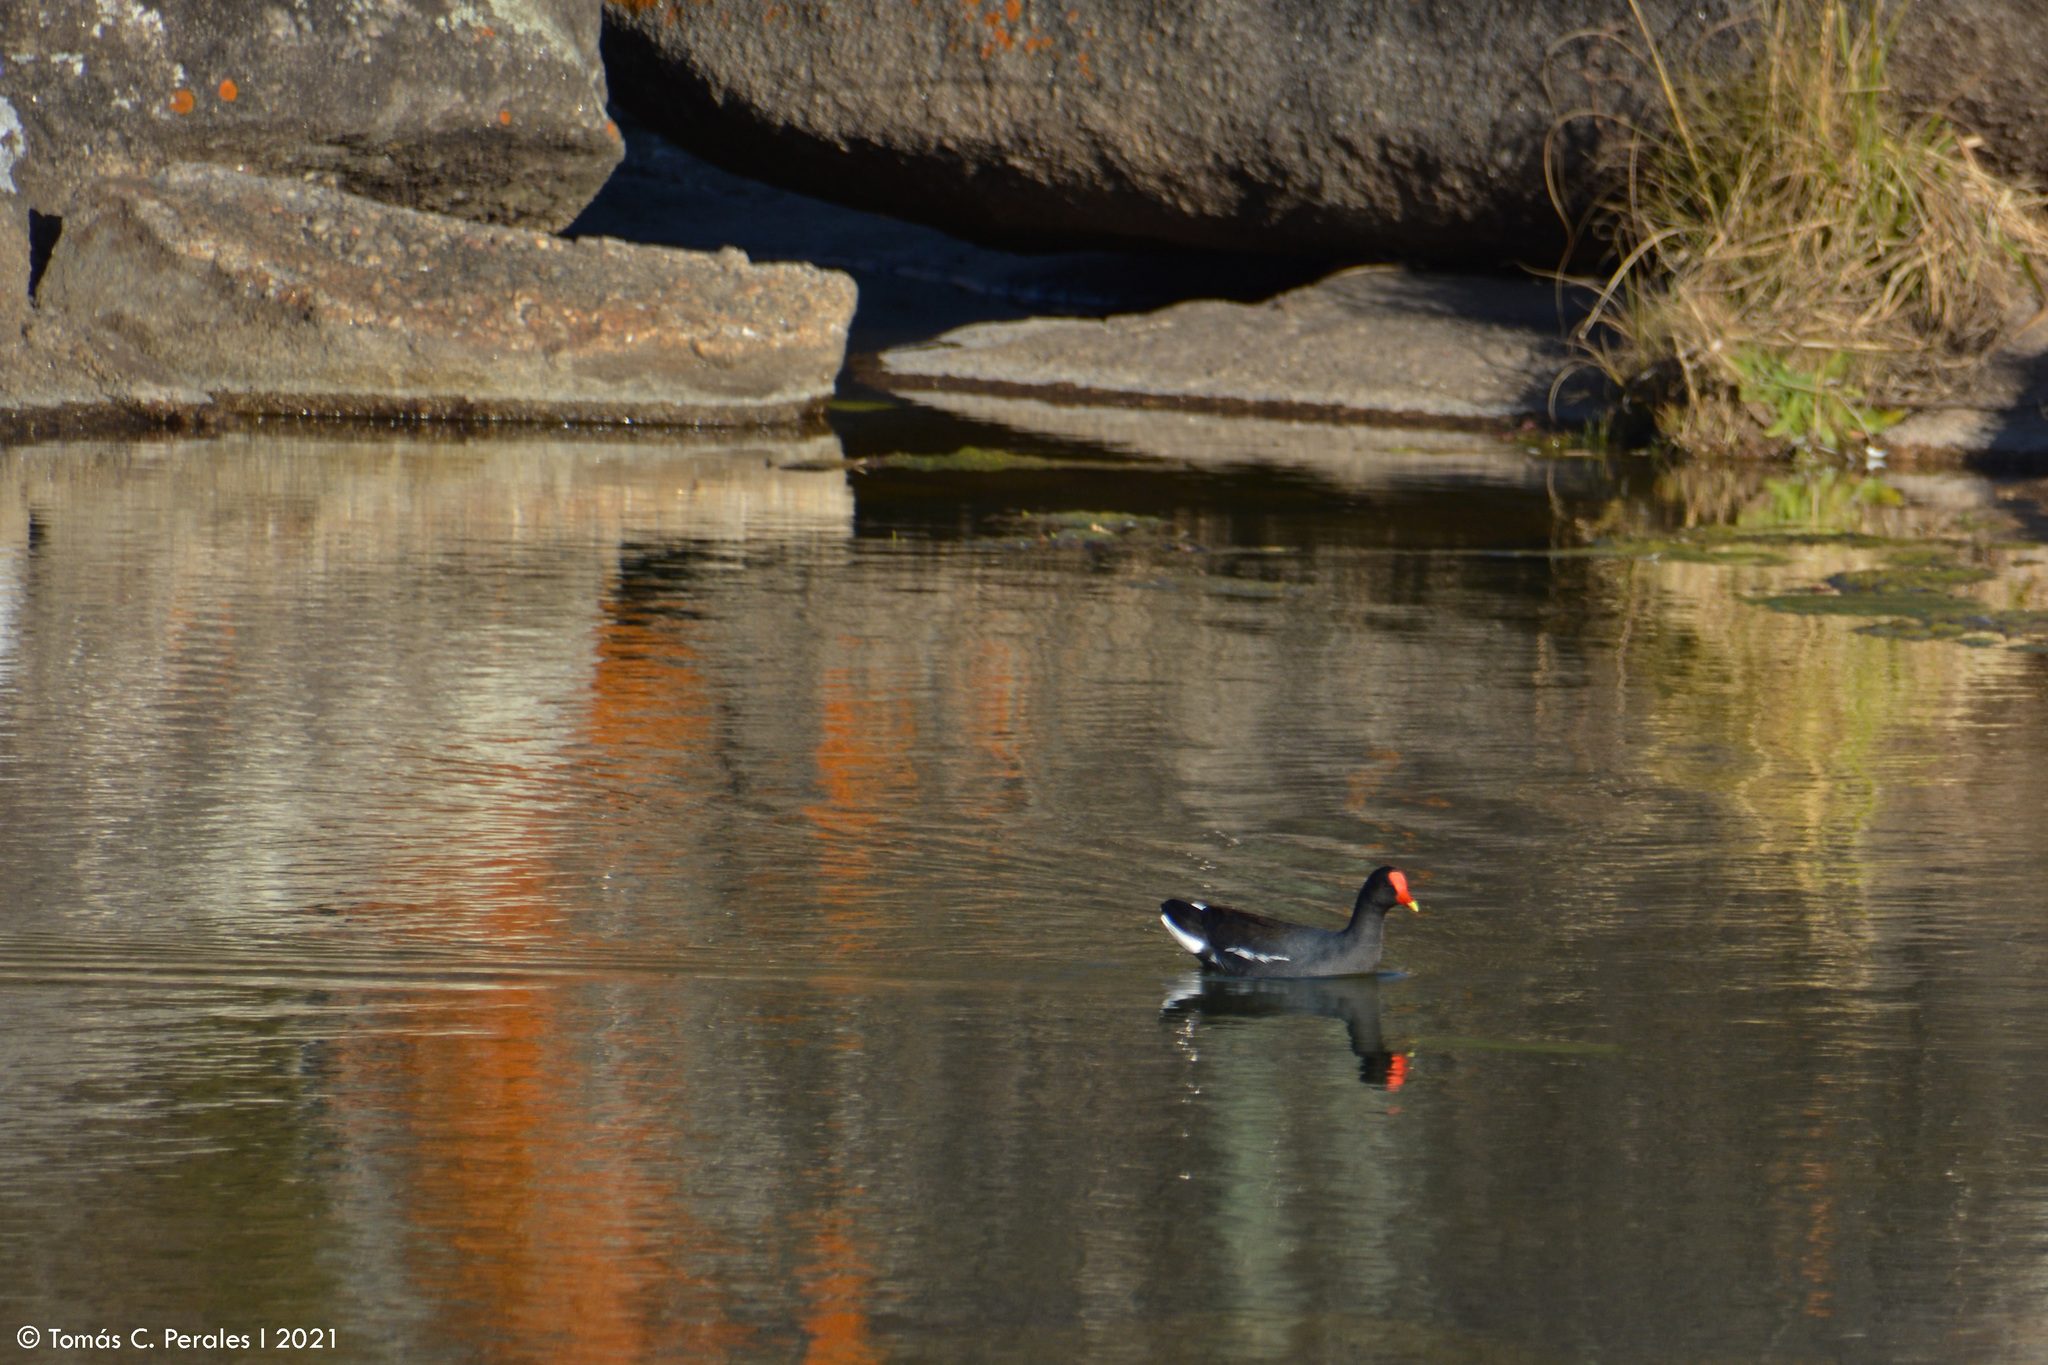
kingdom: Animalia
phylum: Chordata
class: Aves
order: Gruiformes
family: Rallidae
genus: Gallinula
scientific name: Gallinula chloropus
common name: Common moorhen
